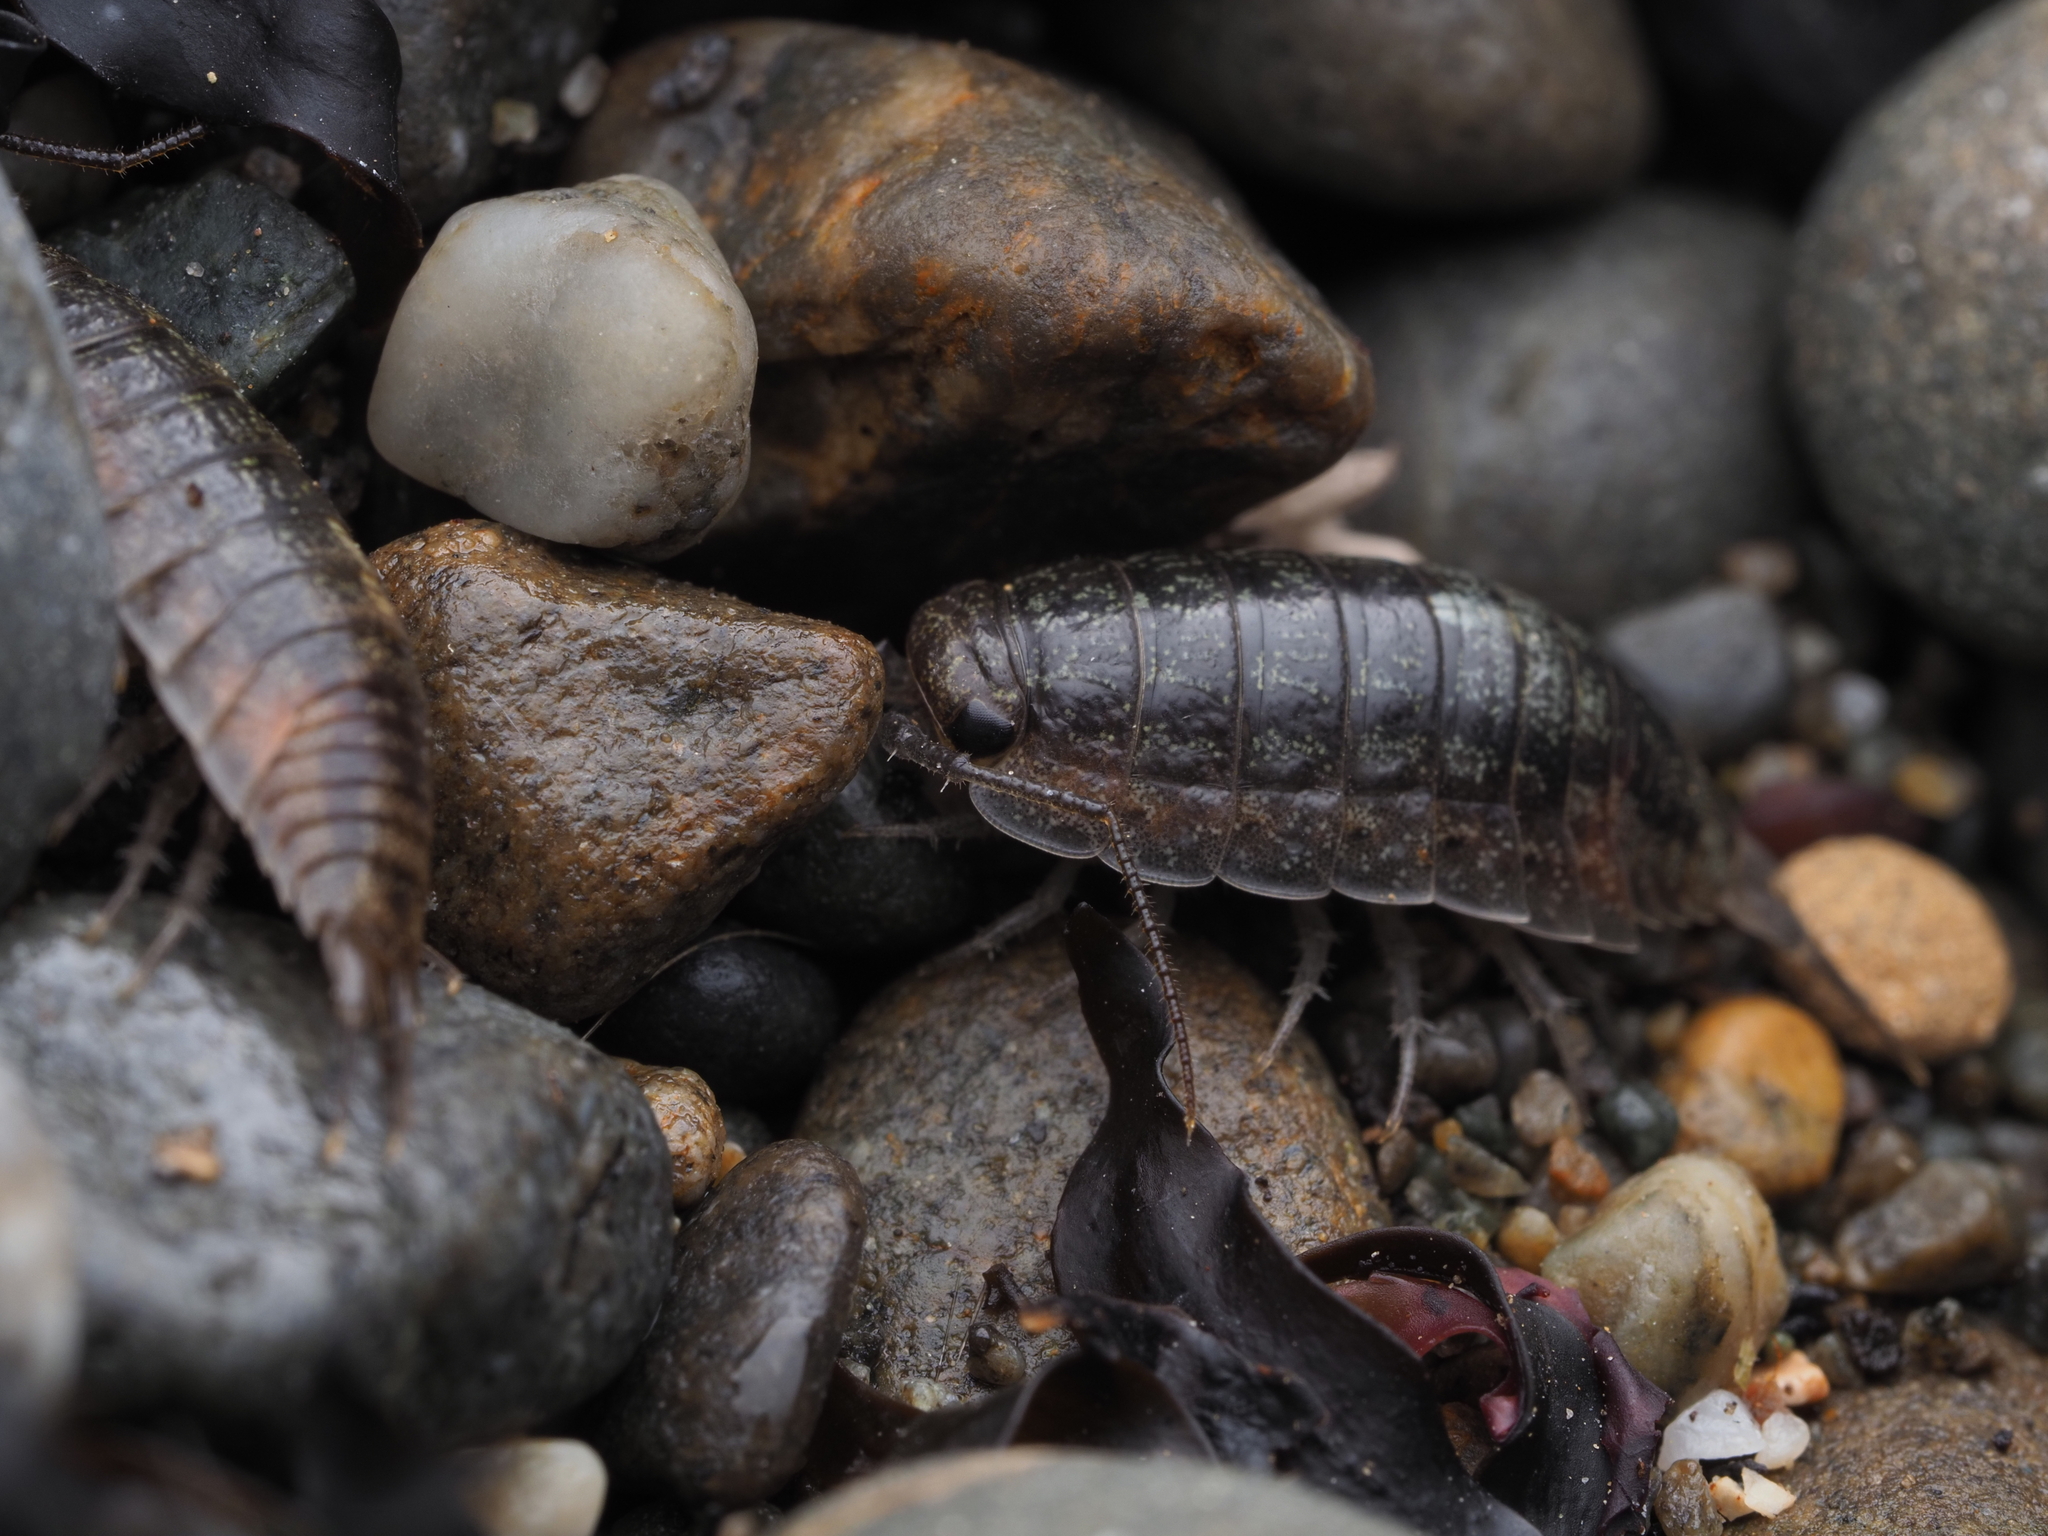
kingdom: Animalia
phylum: Arthropoda
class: Malacostraca
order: Isopoda
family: Ligiidae
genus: Ligia
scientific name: Ligia novizealandiae
